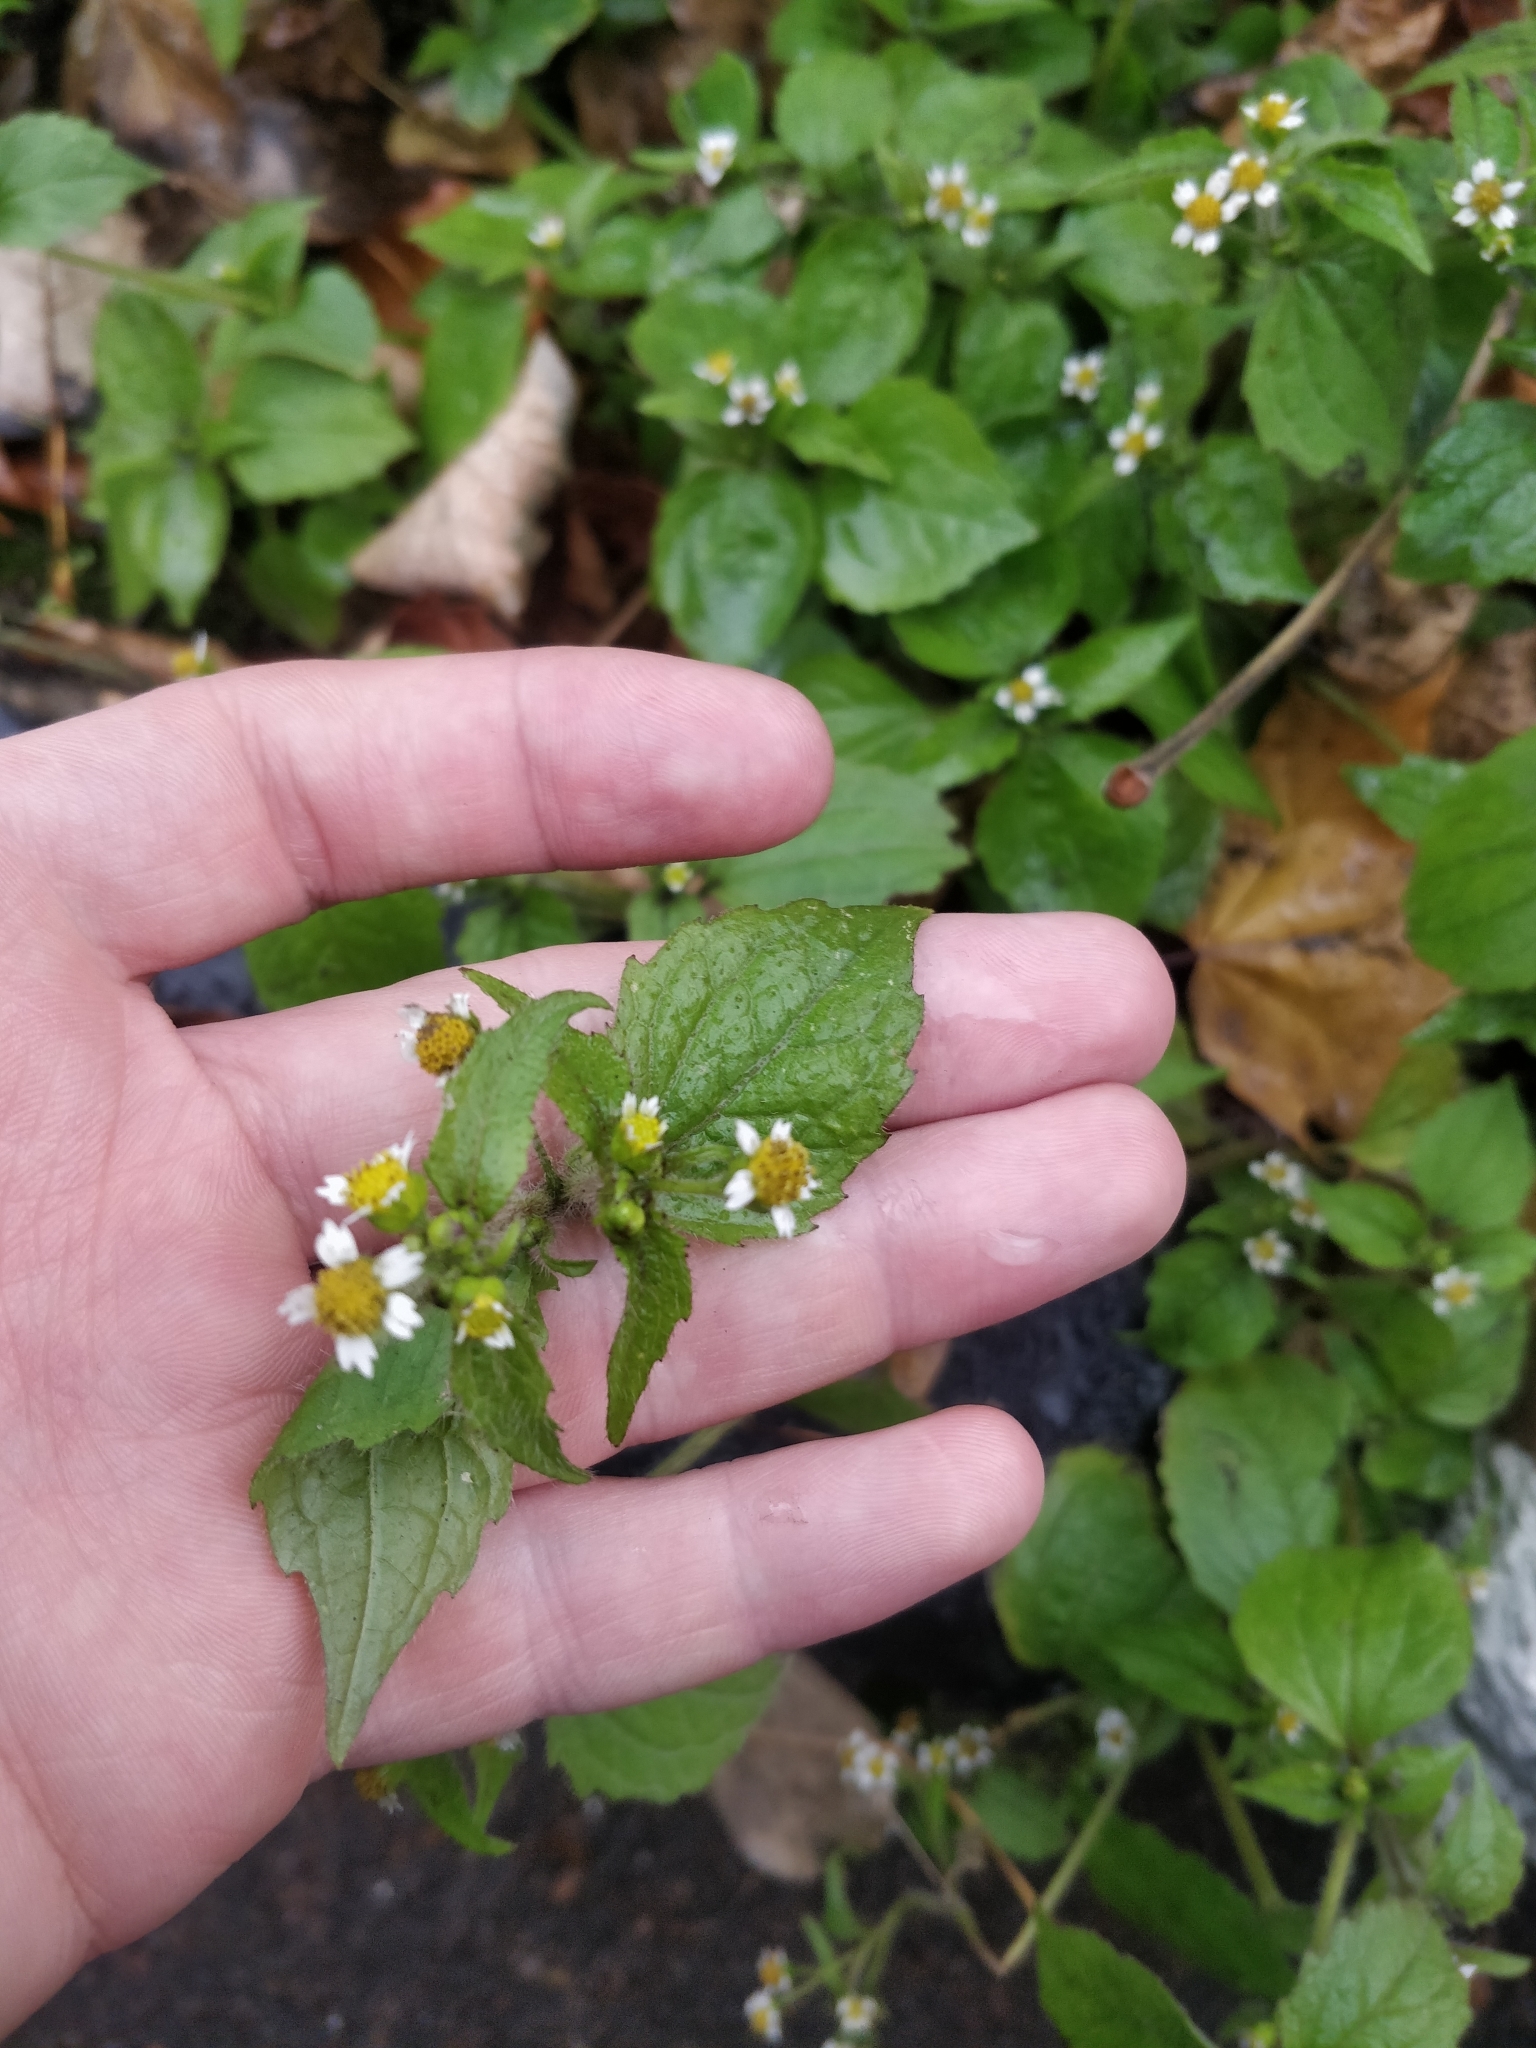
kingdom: Plantae
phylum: Tracheophyta
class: Magnoliopsida
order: Asterales
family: Asteraceae
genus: Galinsoga
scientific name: Galinsoga quadriradiata
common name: Shaggy soldier
